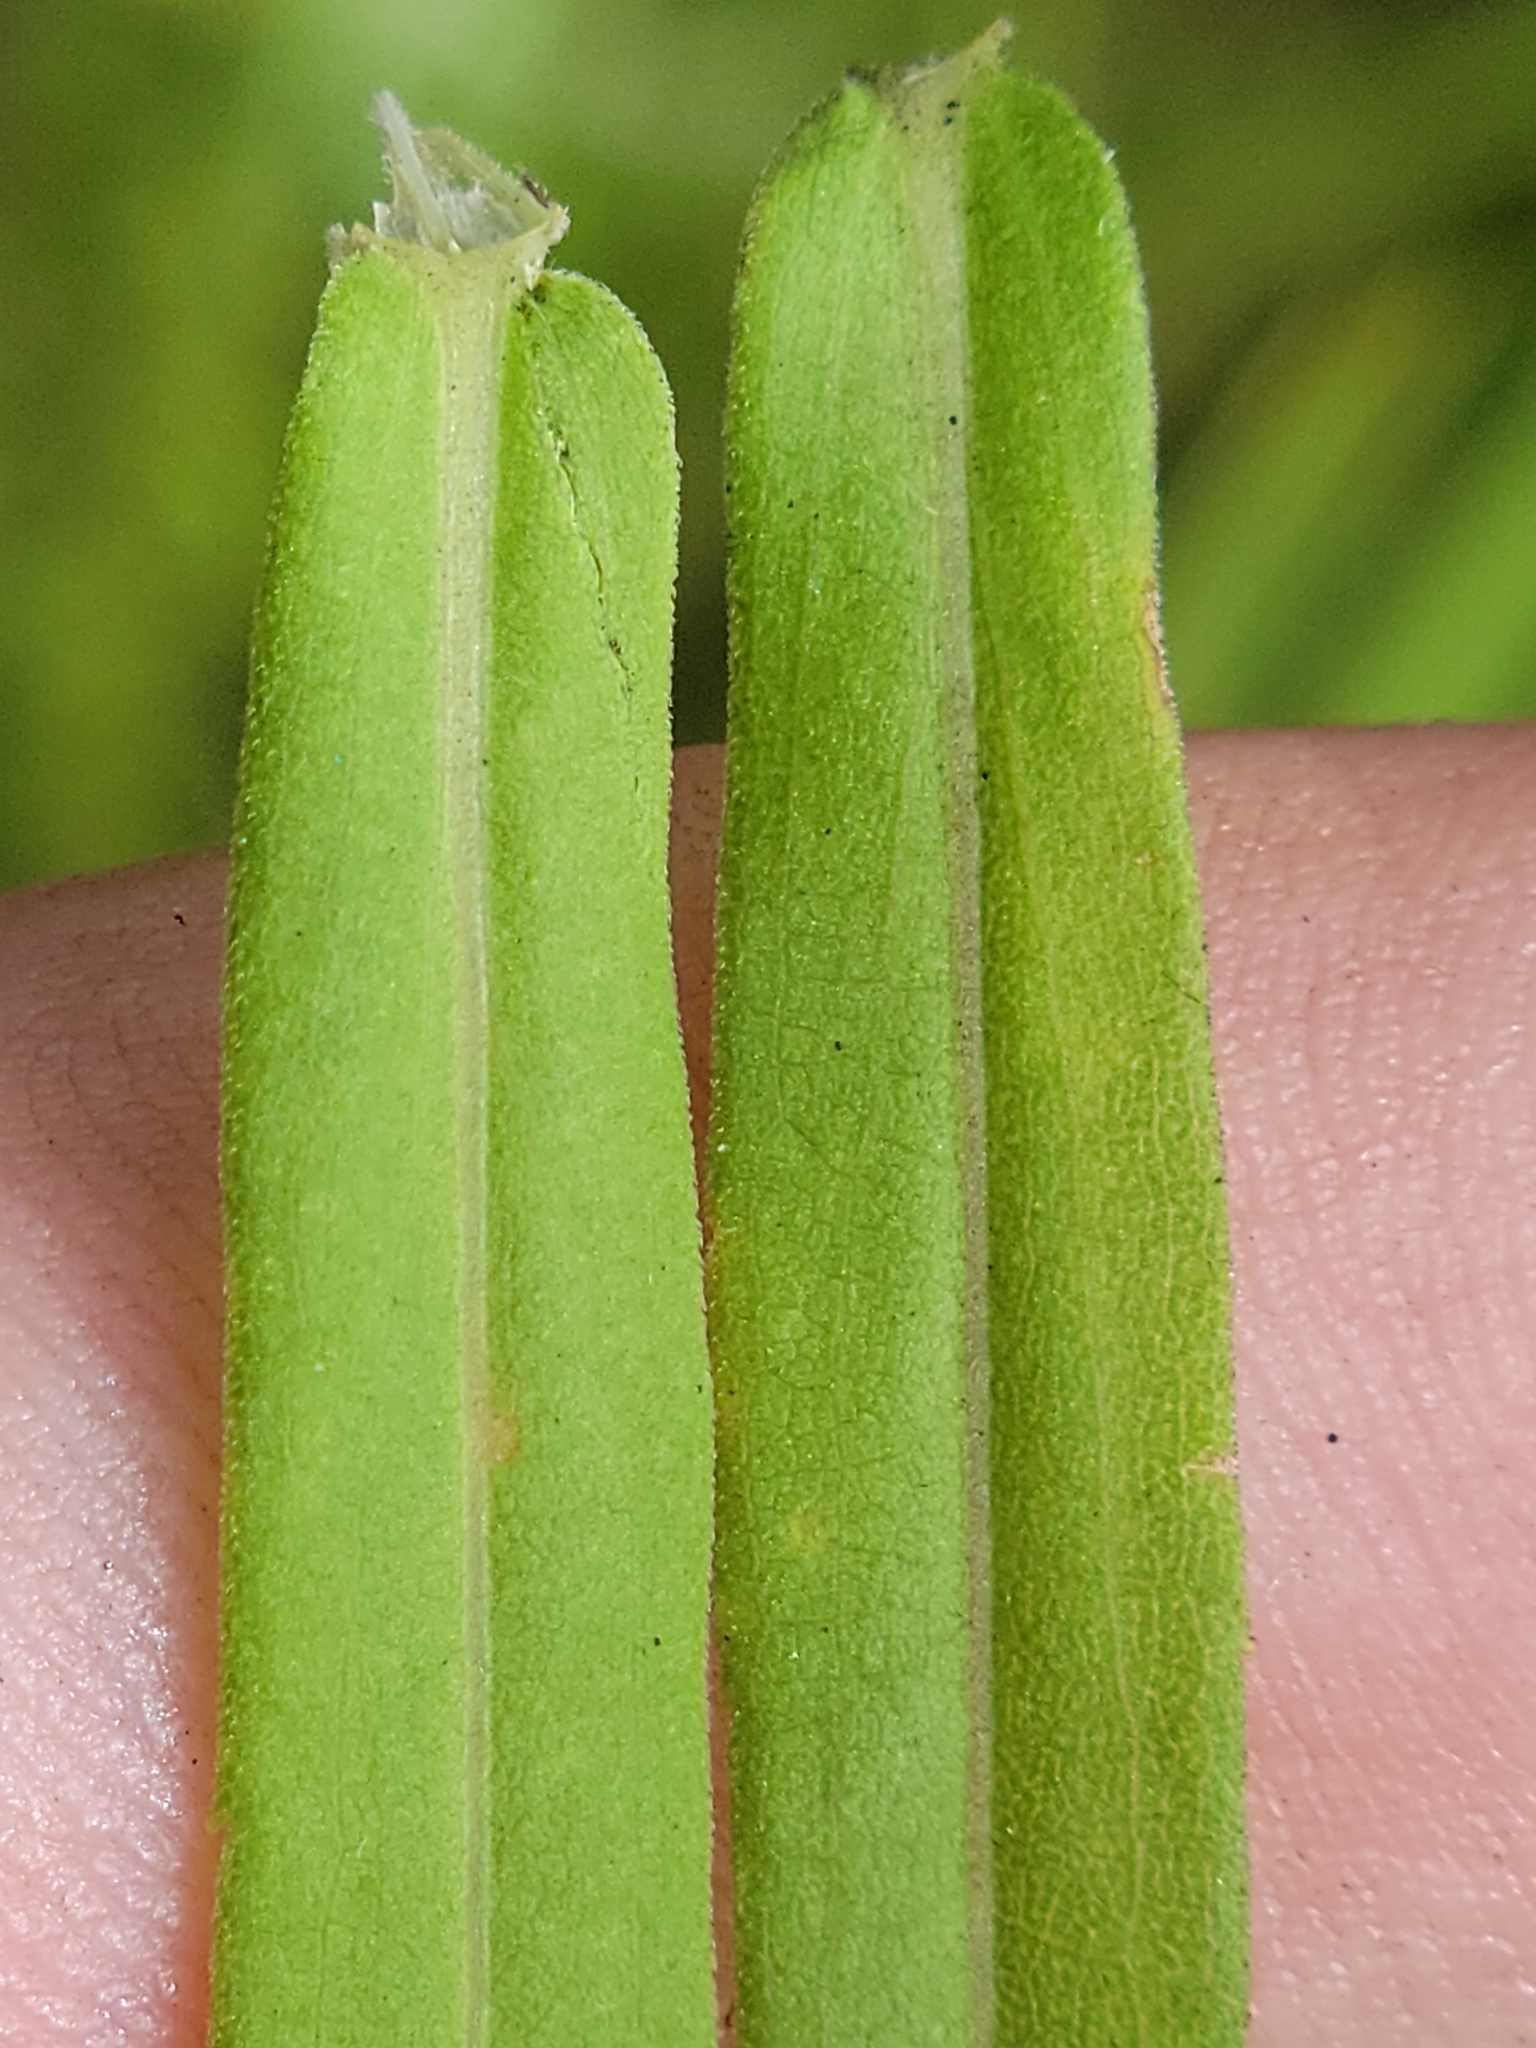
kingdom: Plantae
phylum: Tracheophyta
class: Magnoliopsida
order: Asterales
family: Asteraceae
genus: Solidago
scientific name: Solidago tortifolia
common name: Twisted-leaf goldenrod
